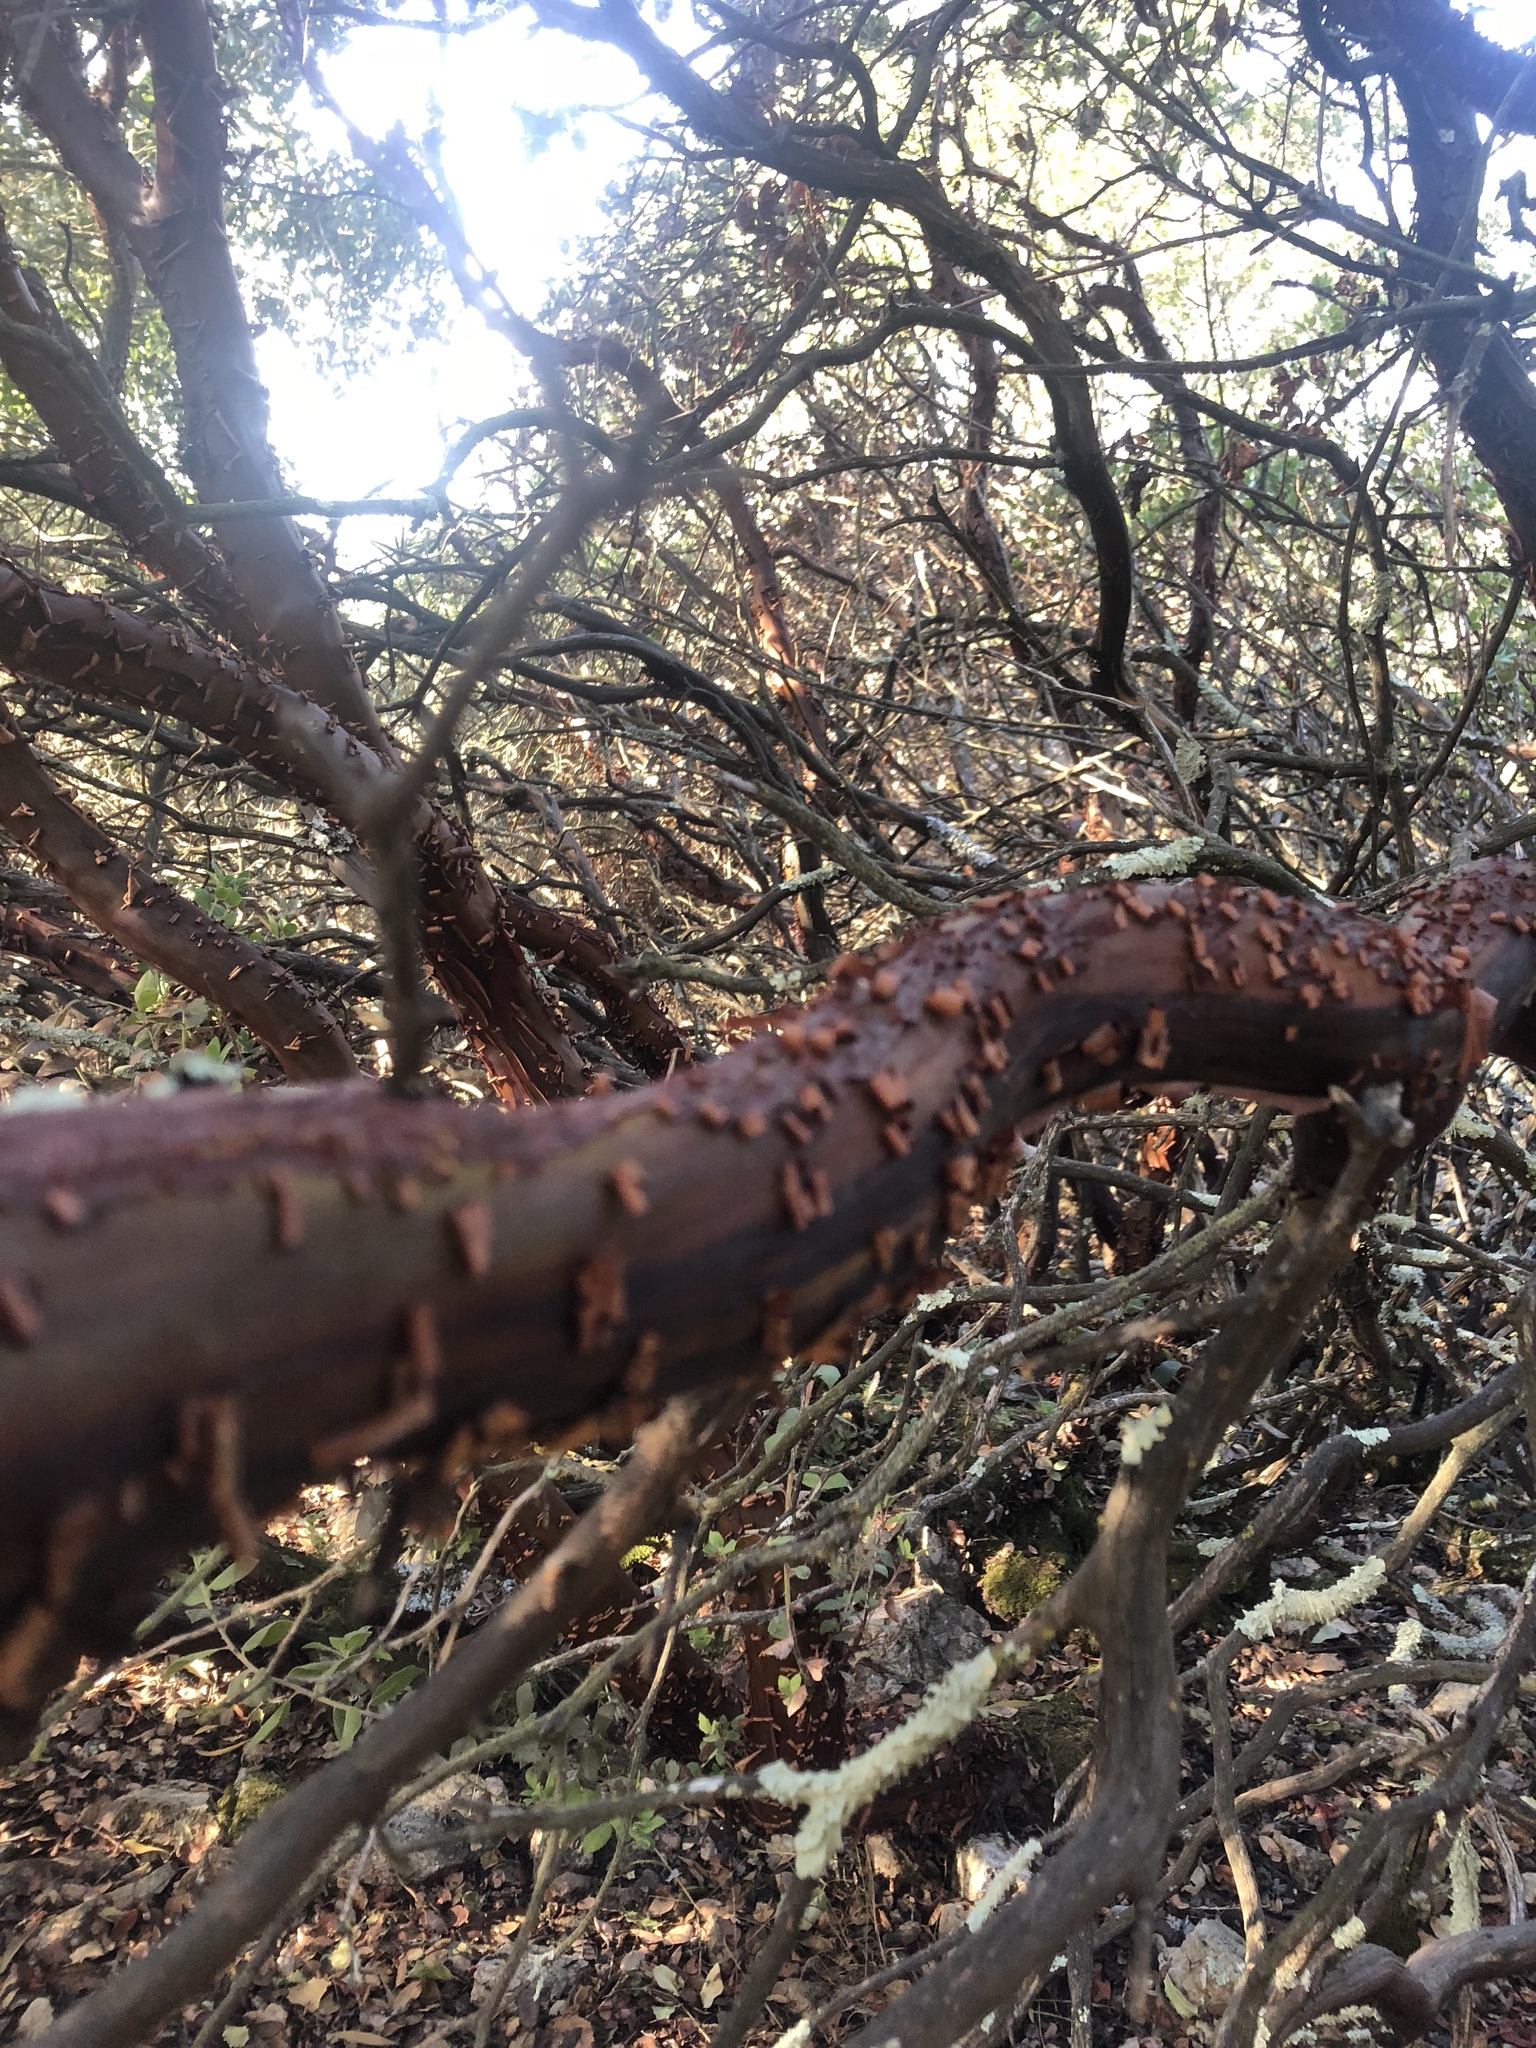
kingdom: Plantae
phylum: Tracheophyta
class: Magnoliopsida
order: Ericales
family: Ericaceae
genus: Arctostaphylos
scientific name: Arctostaphylos crustacea
